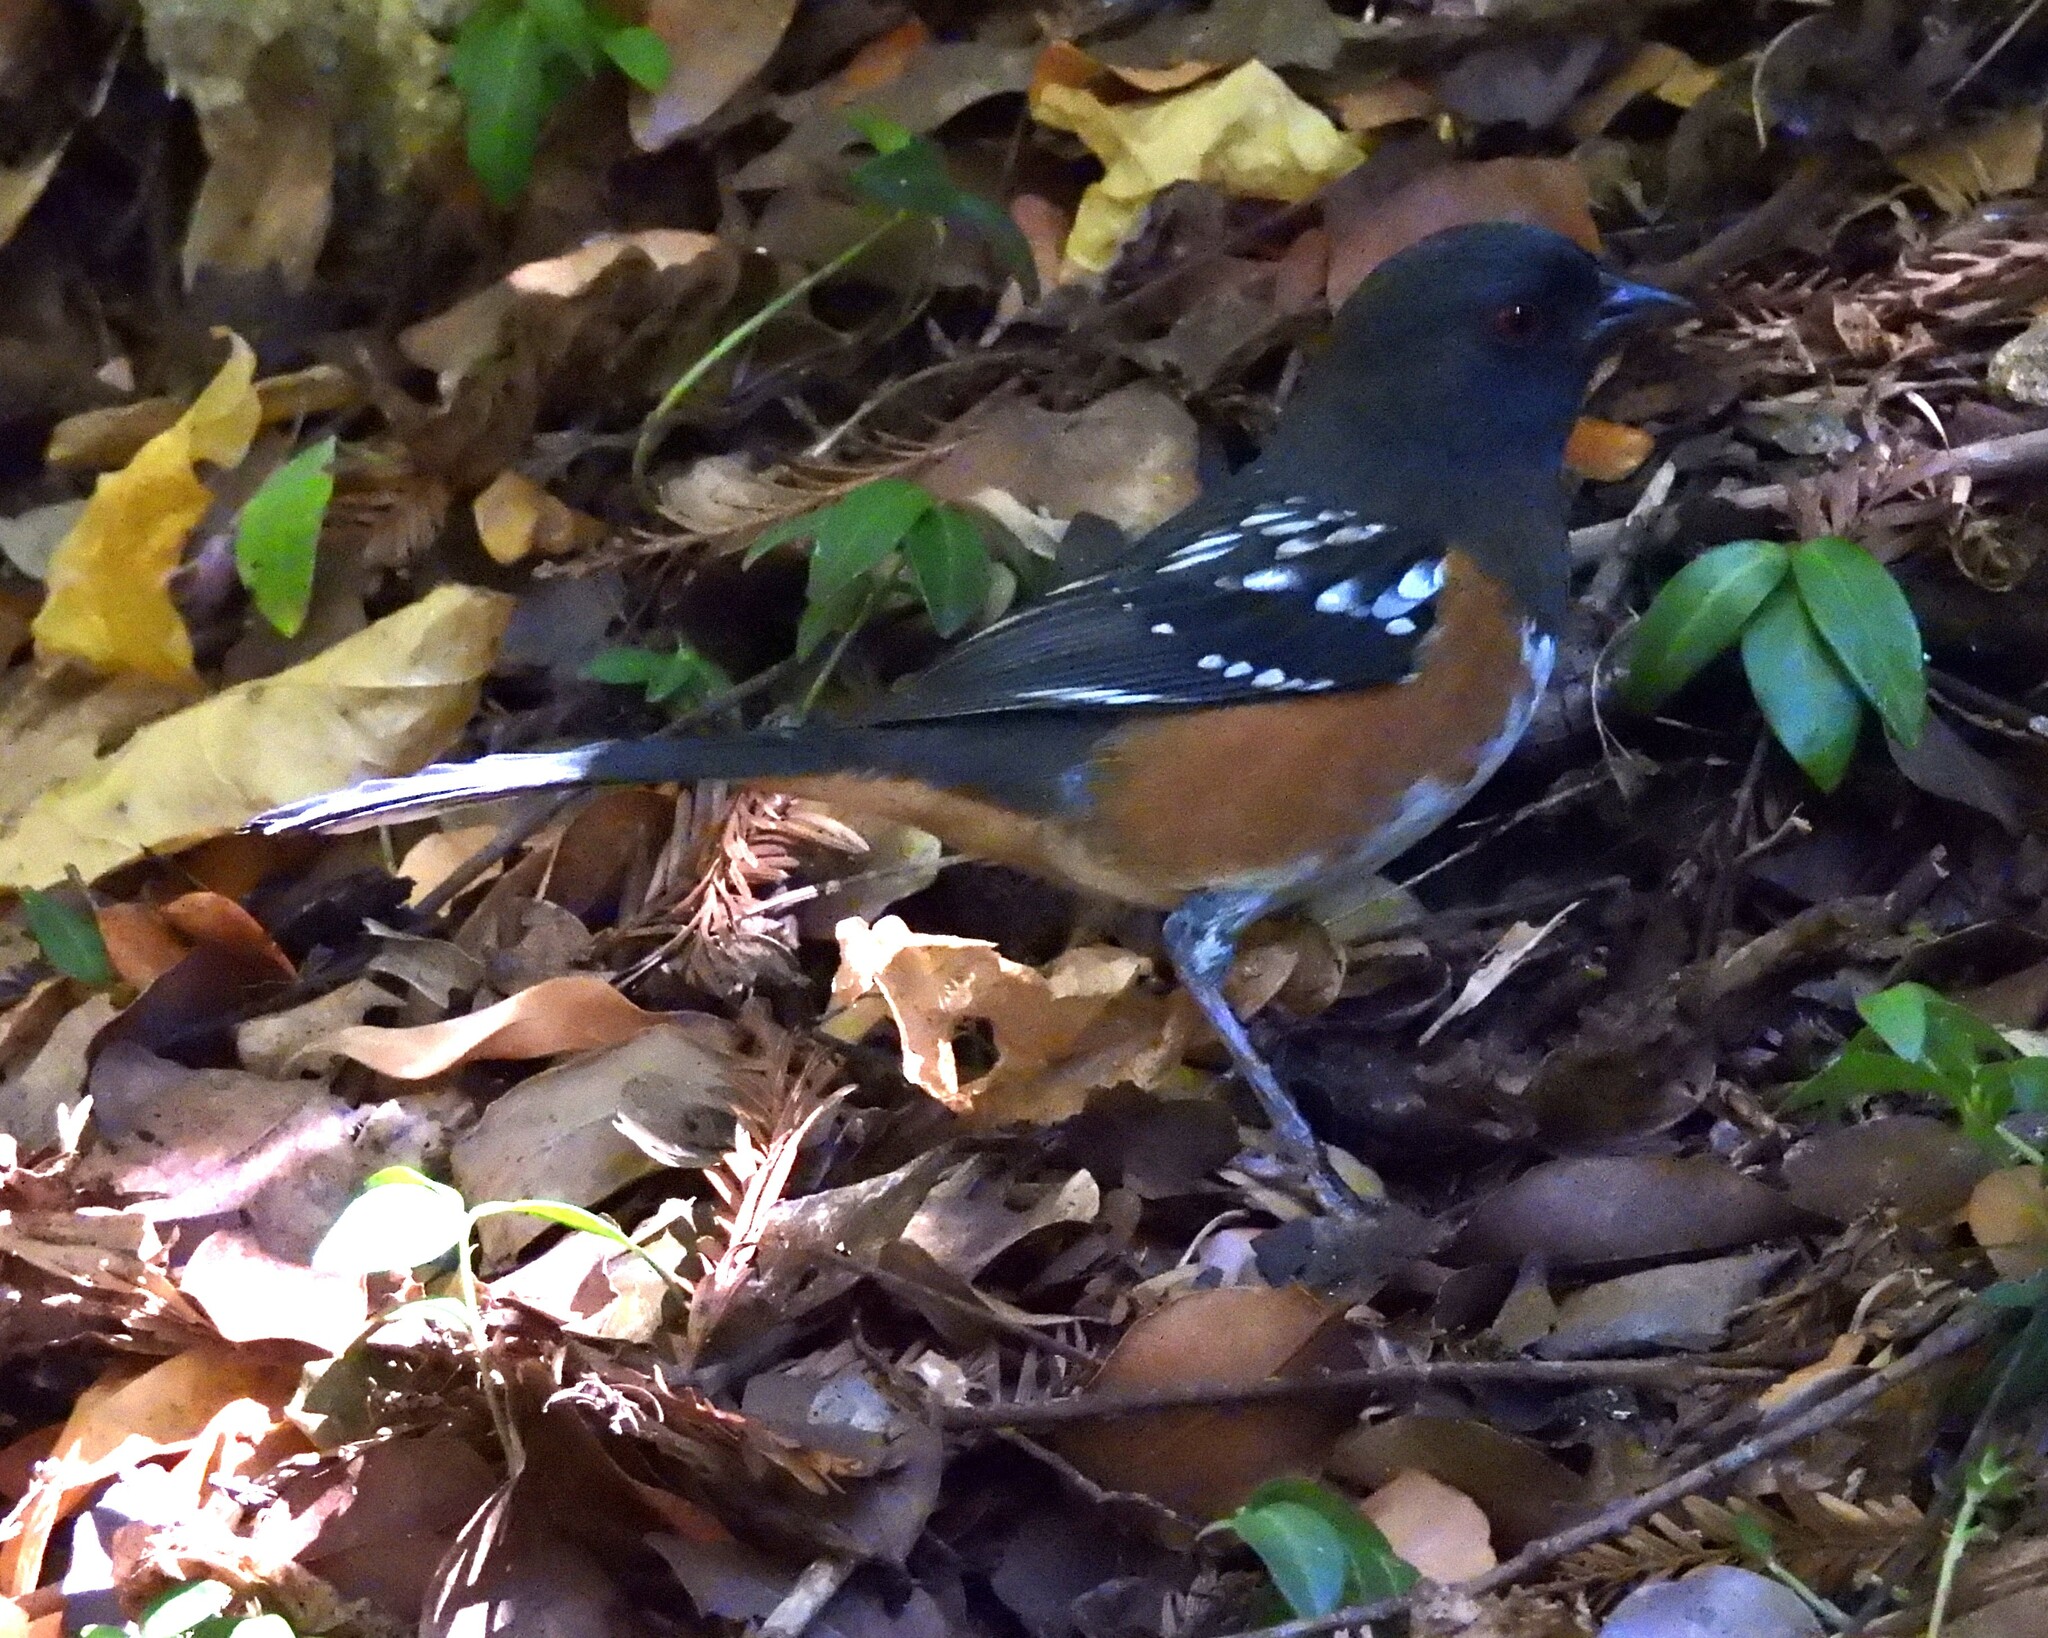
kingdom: Animalia
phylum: Chordata
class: Aves
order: Passeriformes
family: Passerellidae
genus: Pipilo
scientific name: Pipilo maculatus
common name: Spotted towhee
